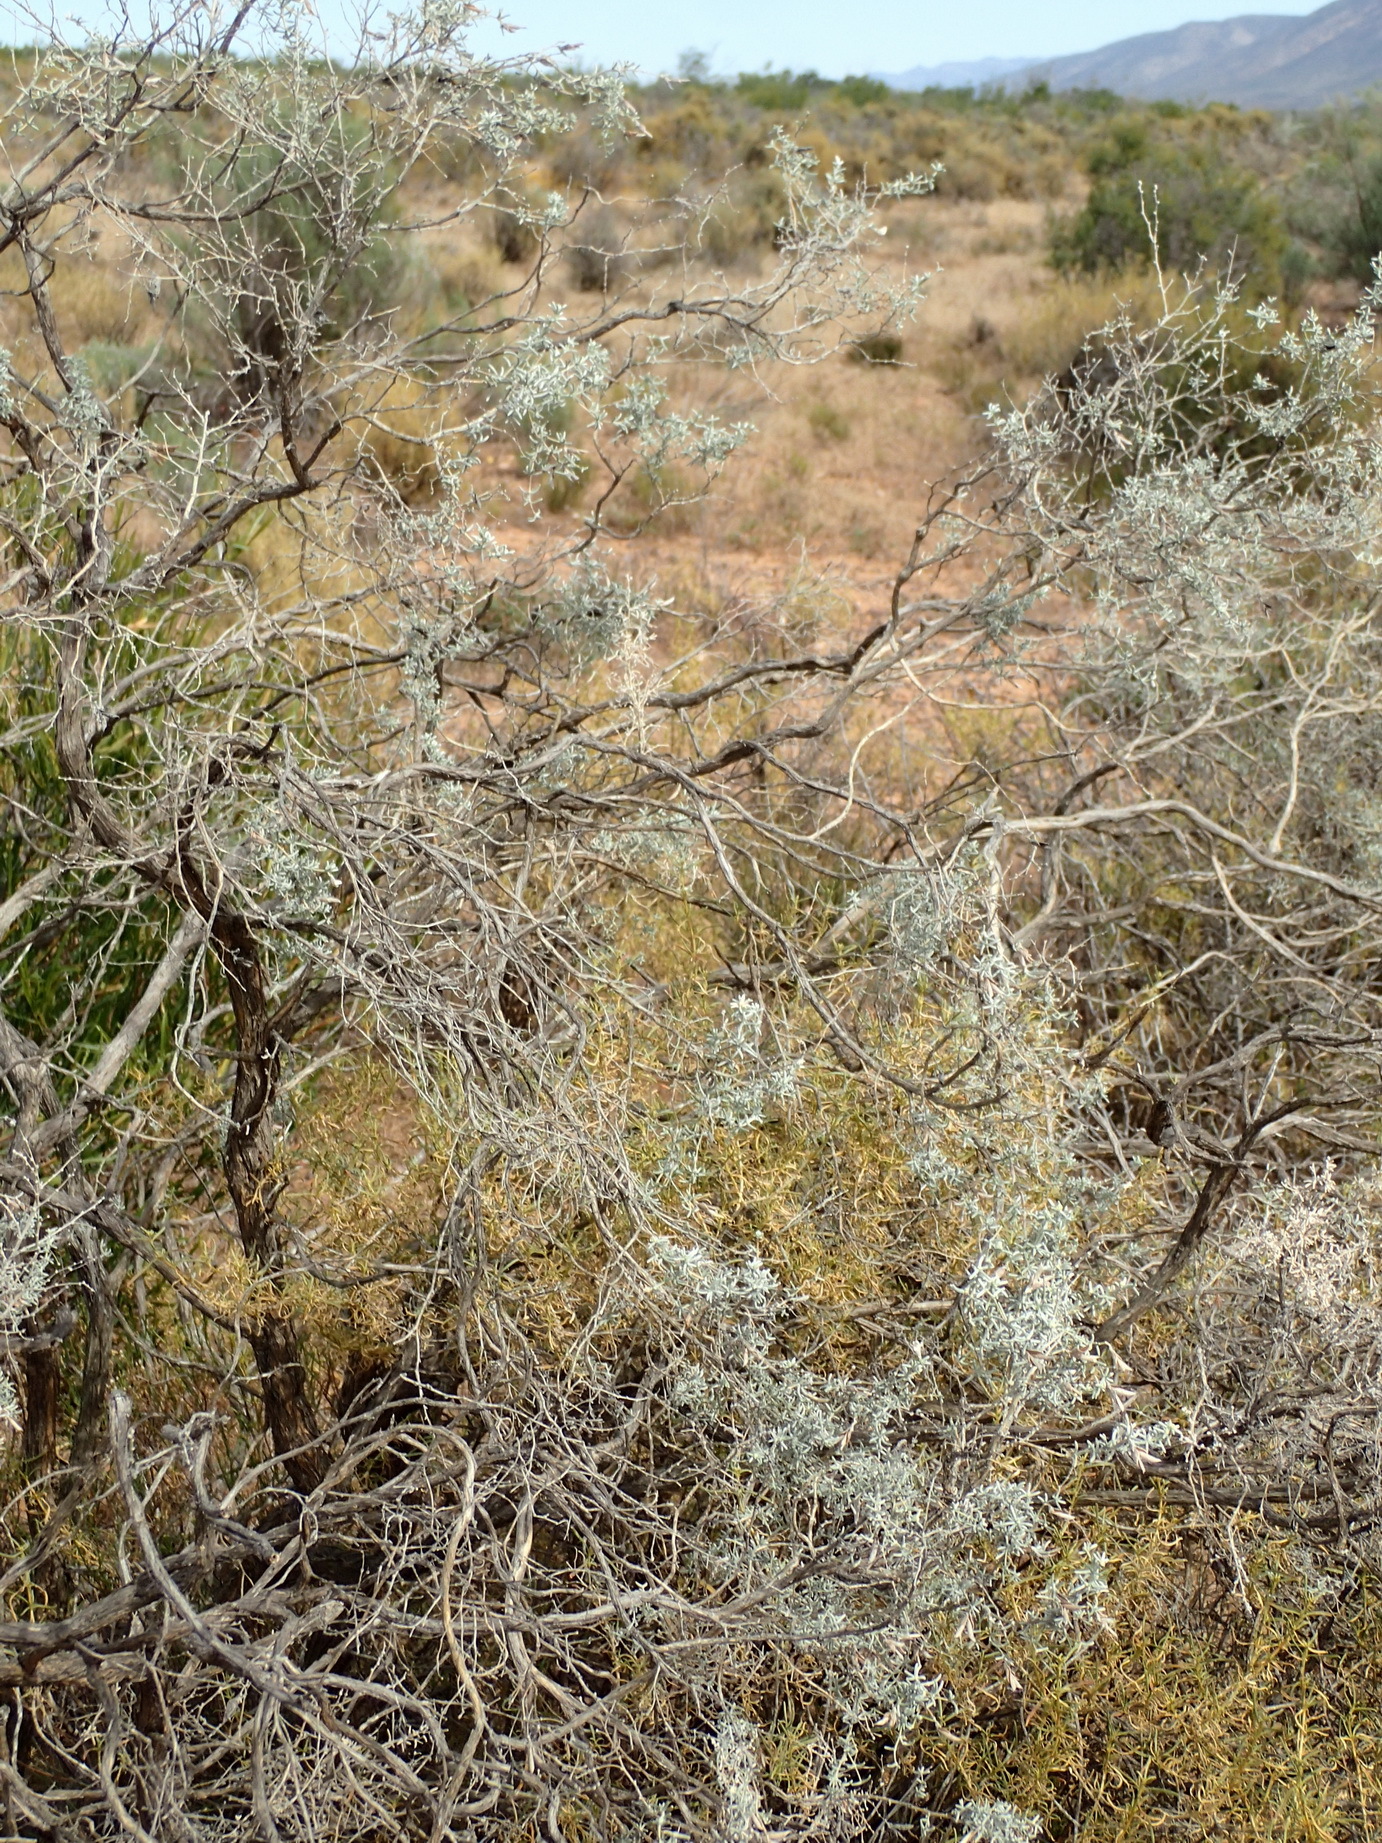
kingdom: Plantae
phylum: Tracheophyta
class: Magnoliopsida
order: Fabales
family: Fabaceae
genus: Aspalathus
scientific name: Aspalathus pedunculata
